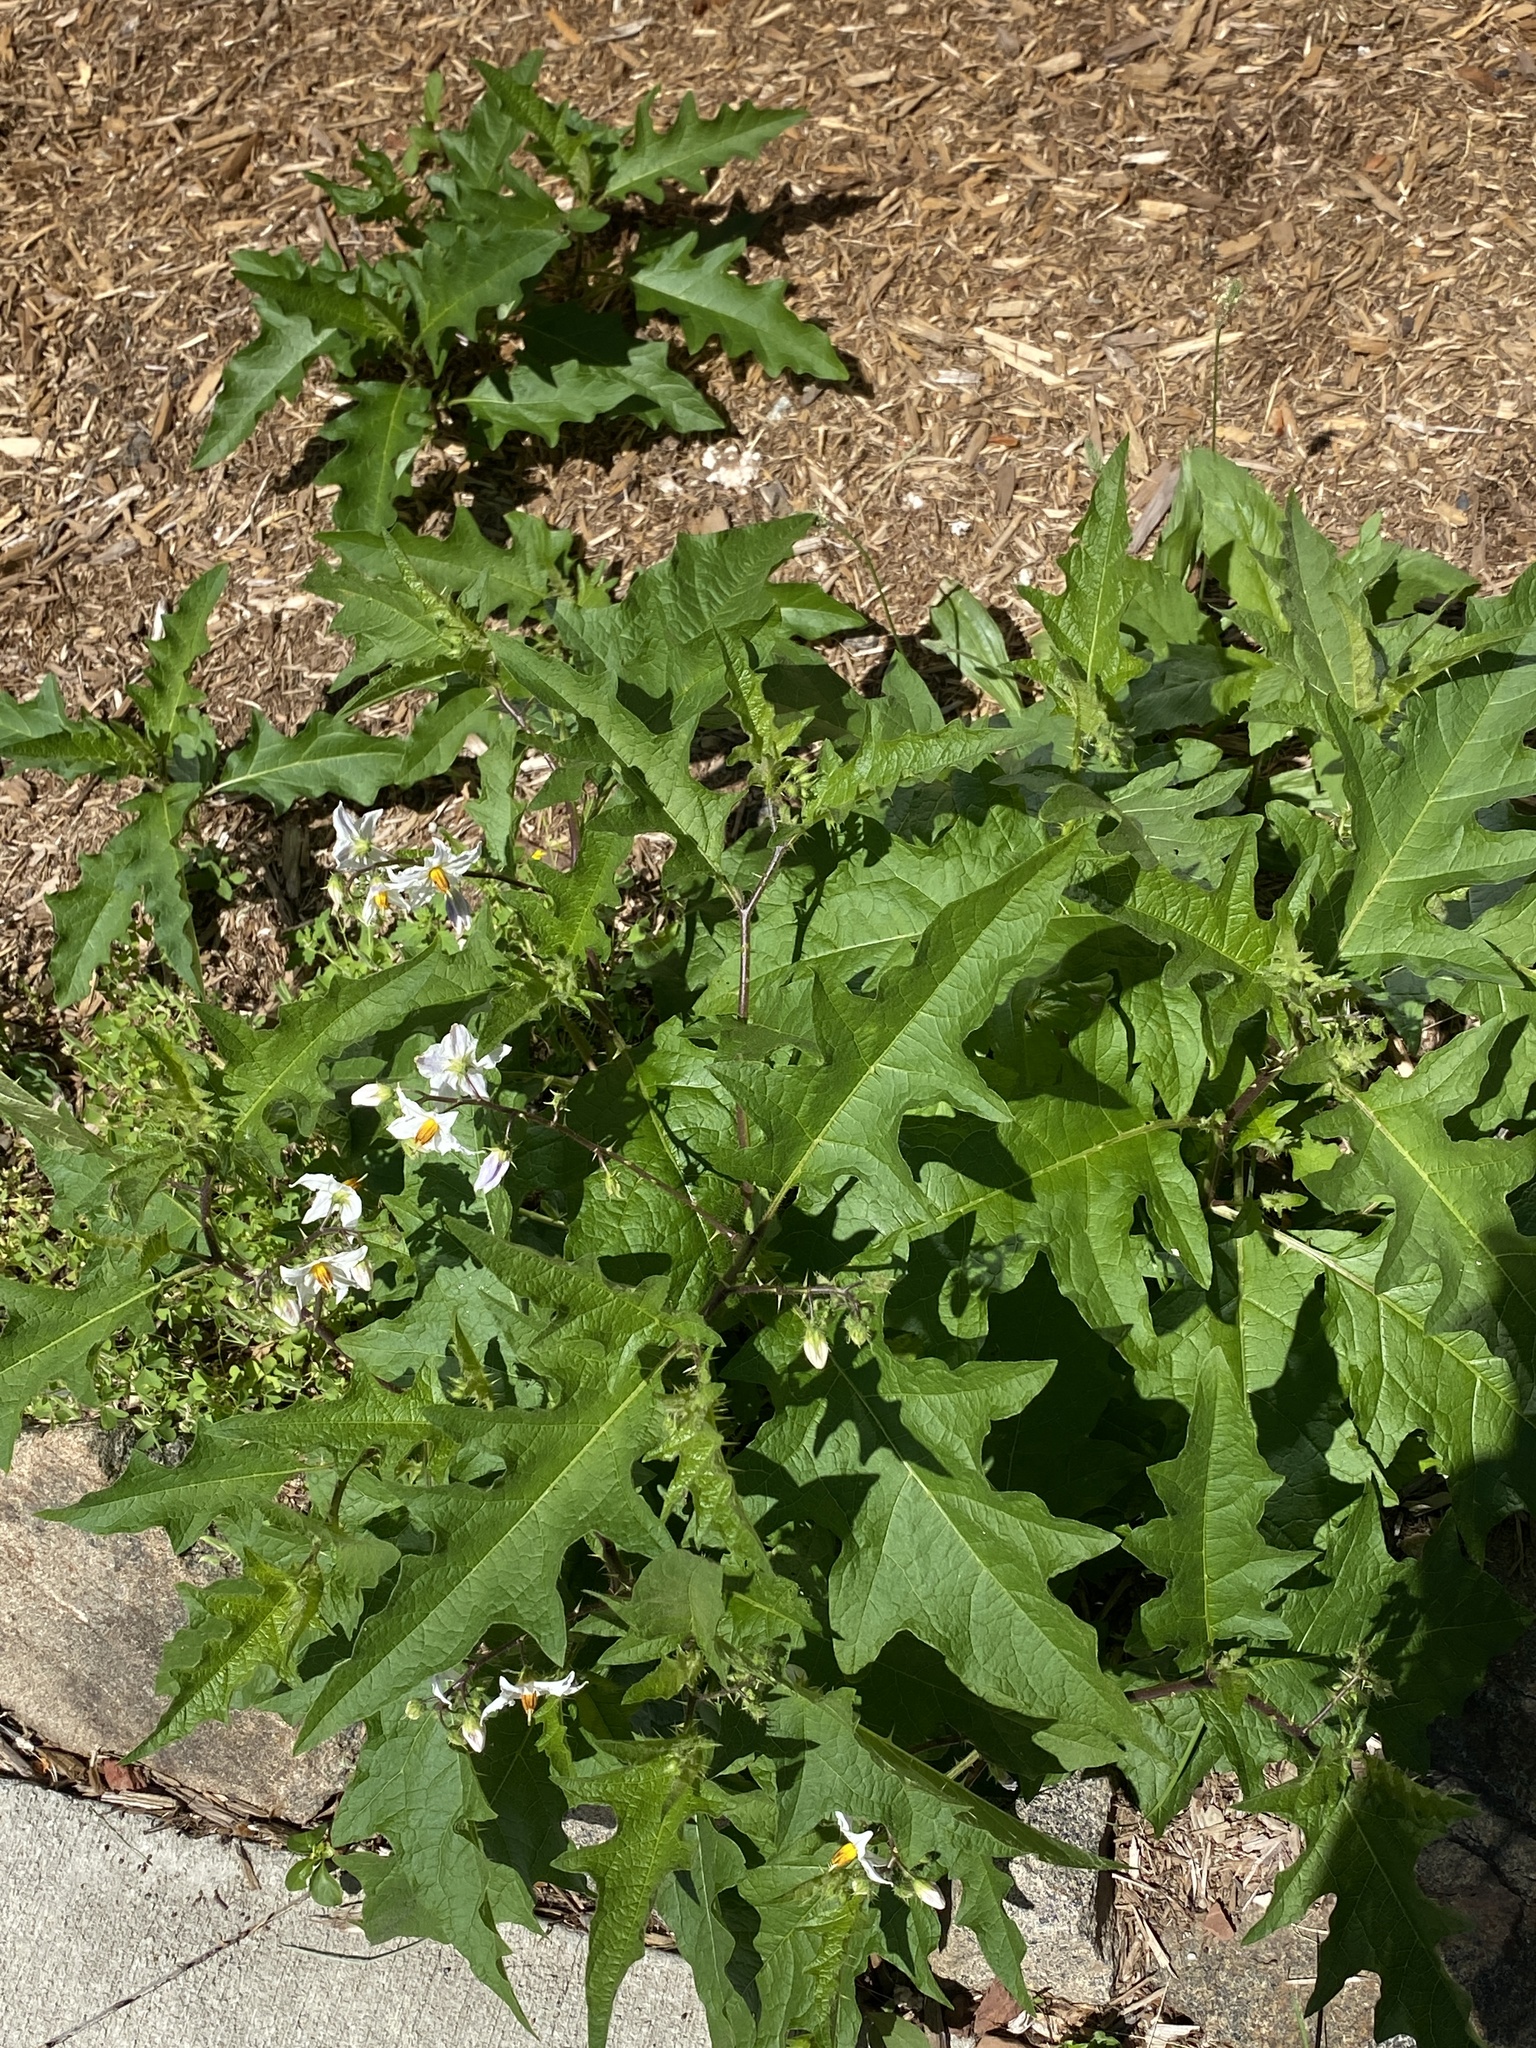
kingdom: Plantae
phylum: Tracheophyta
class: Magnoliopsida
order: Solanales
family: Solanaceae
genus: Solanum
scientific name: Solanum carolinense
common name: Horse-nettle
